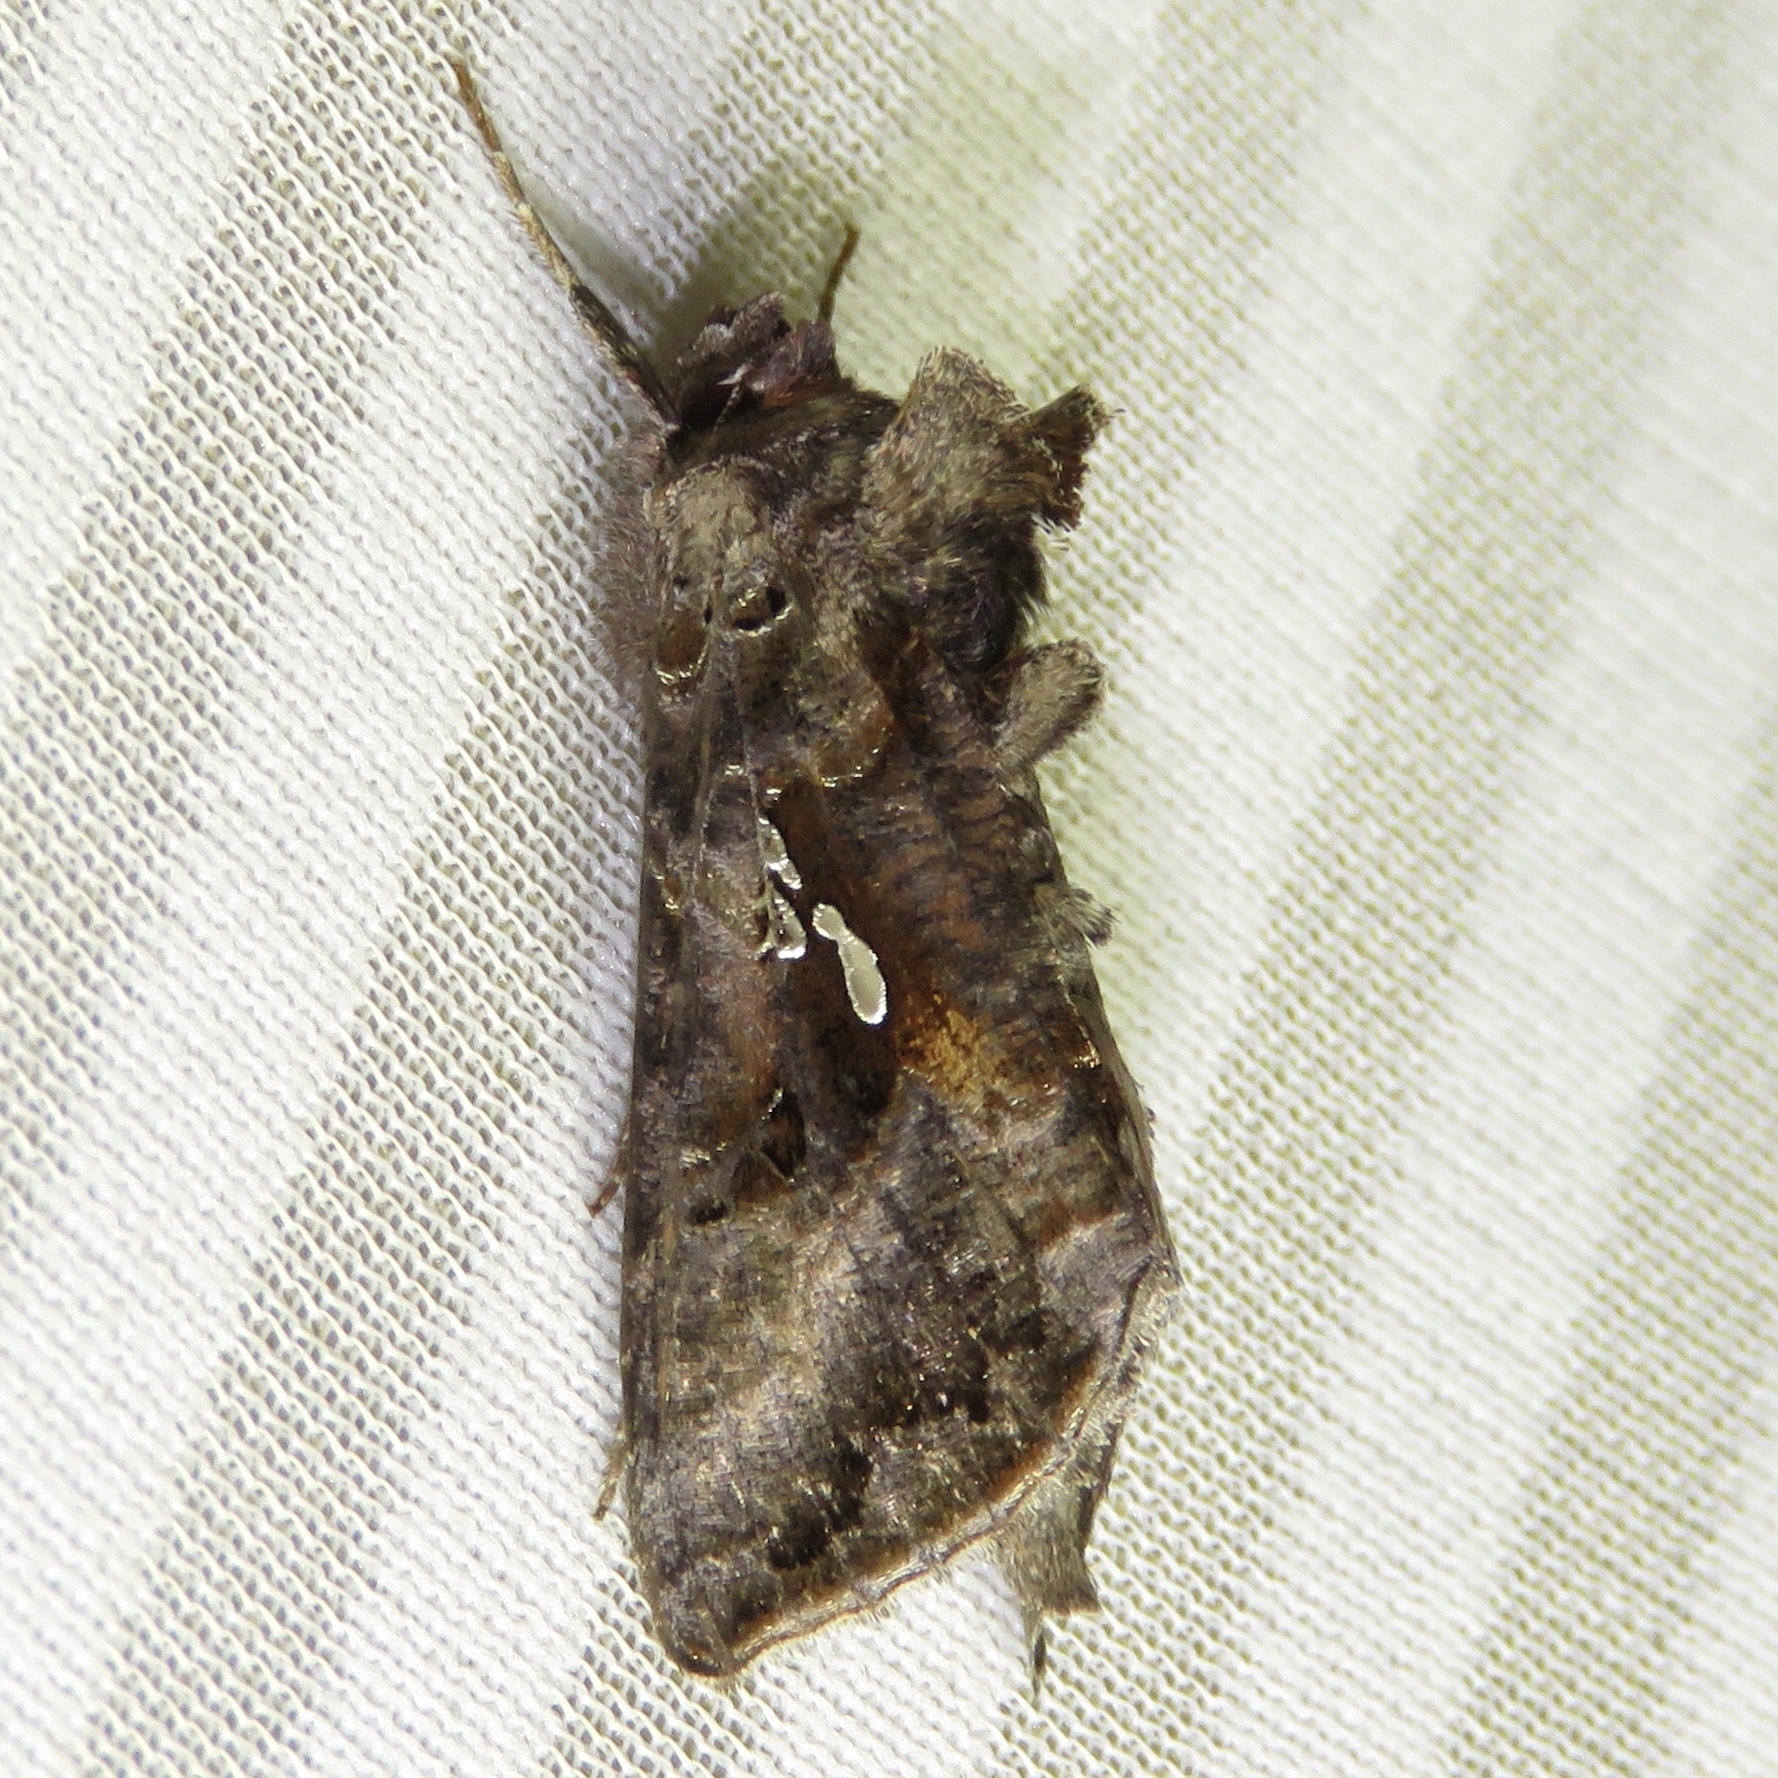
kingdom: Animalia
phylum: Arthropoda
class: Insecta
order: Lepidoptera
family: Noctuidae
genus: Autographa
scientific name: Autographa precationis
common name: Common looper moth
